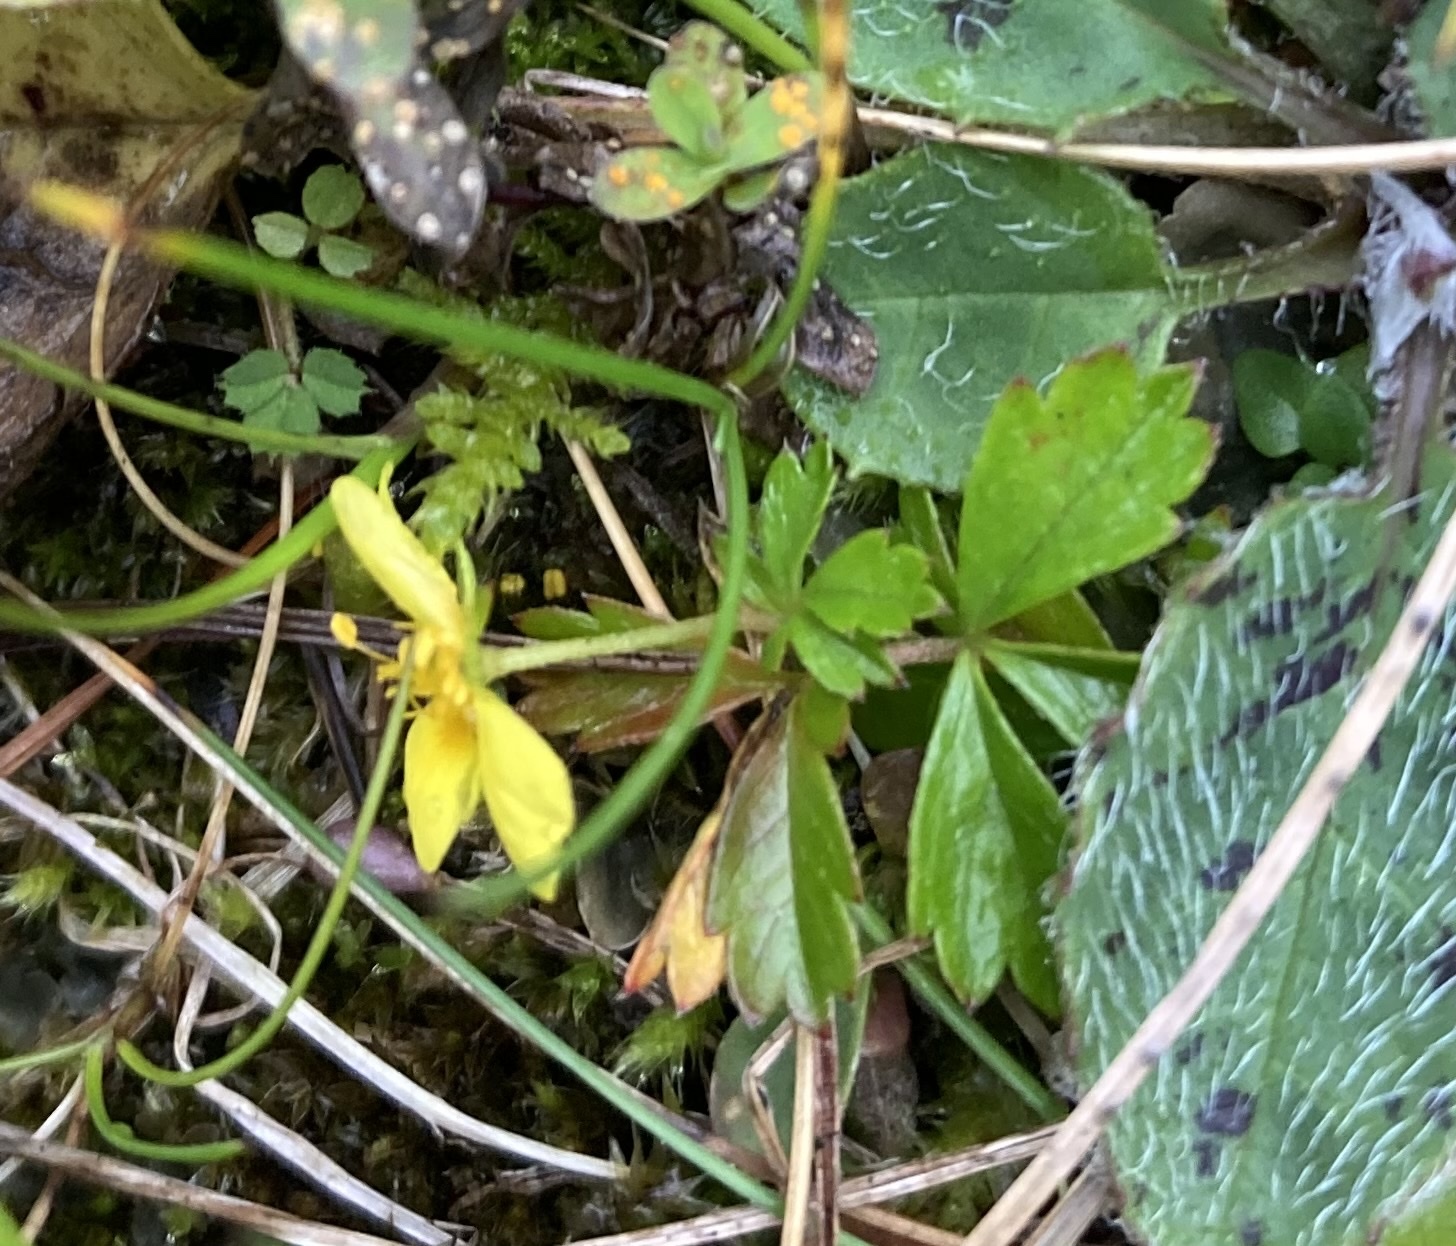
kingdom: Plantae
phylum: Tracheophyta
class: Magnoliopsida
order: Rosales
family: Rosaceae
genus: Potentilla
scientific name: Potentilla erecta
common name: Tormentil
